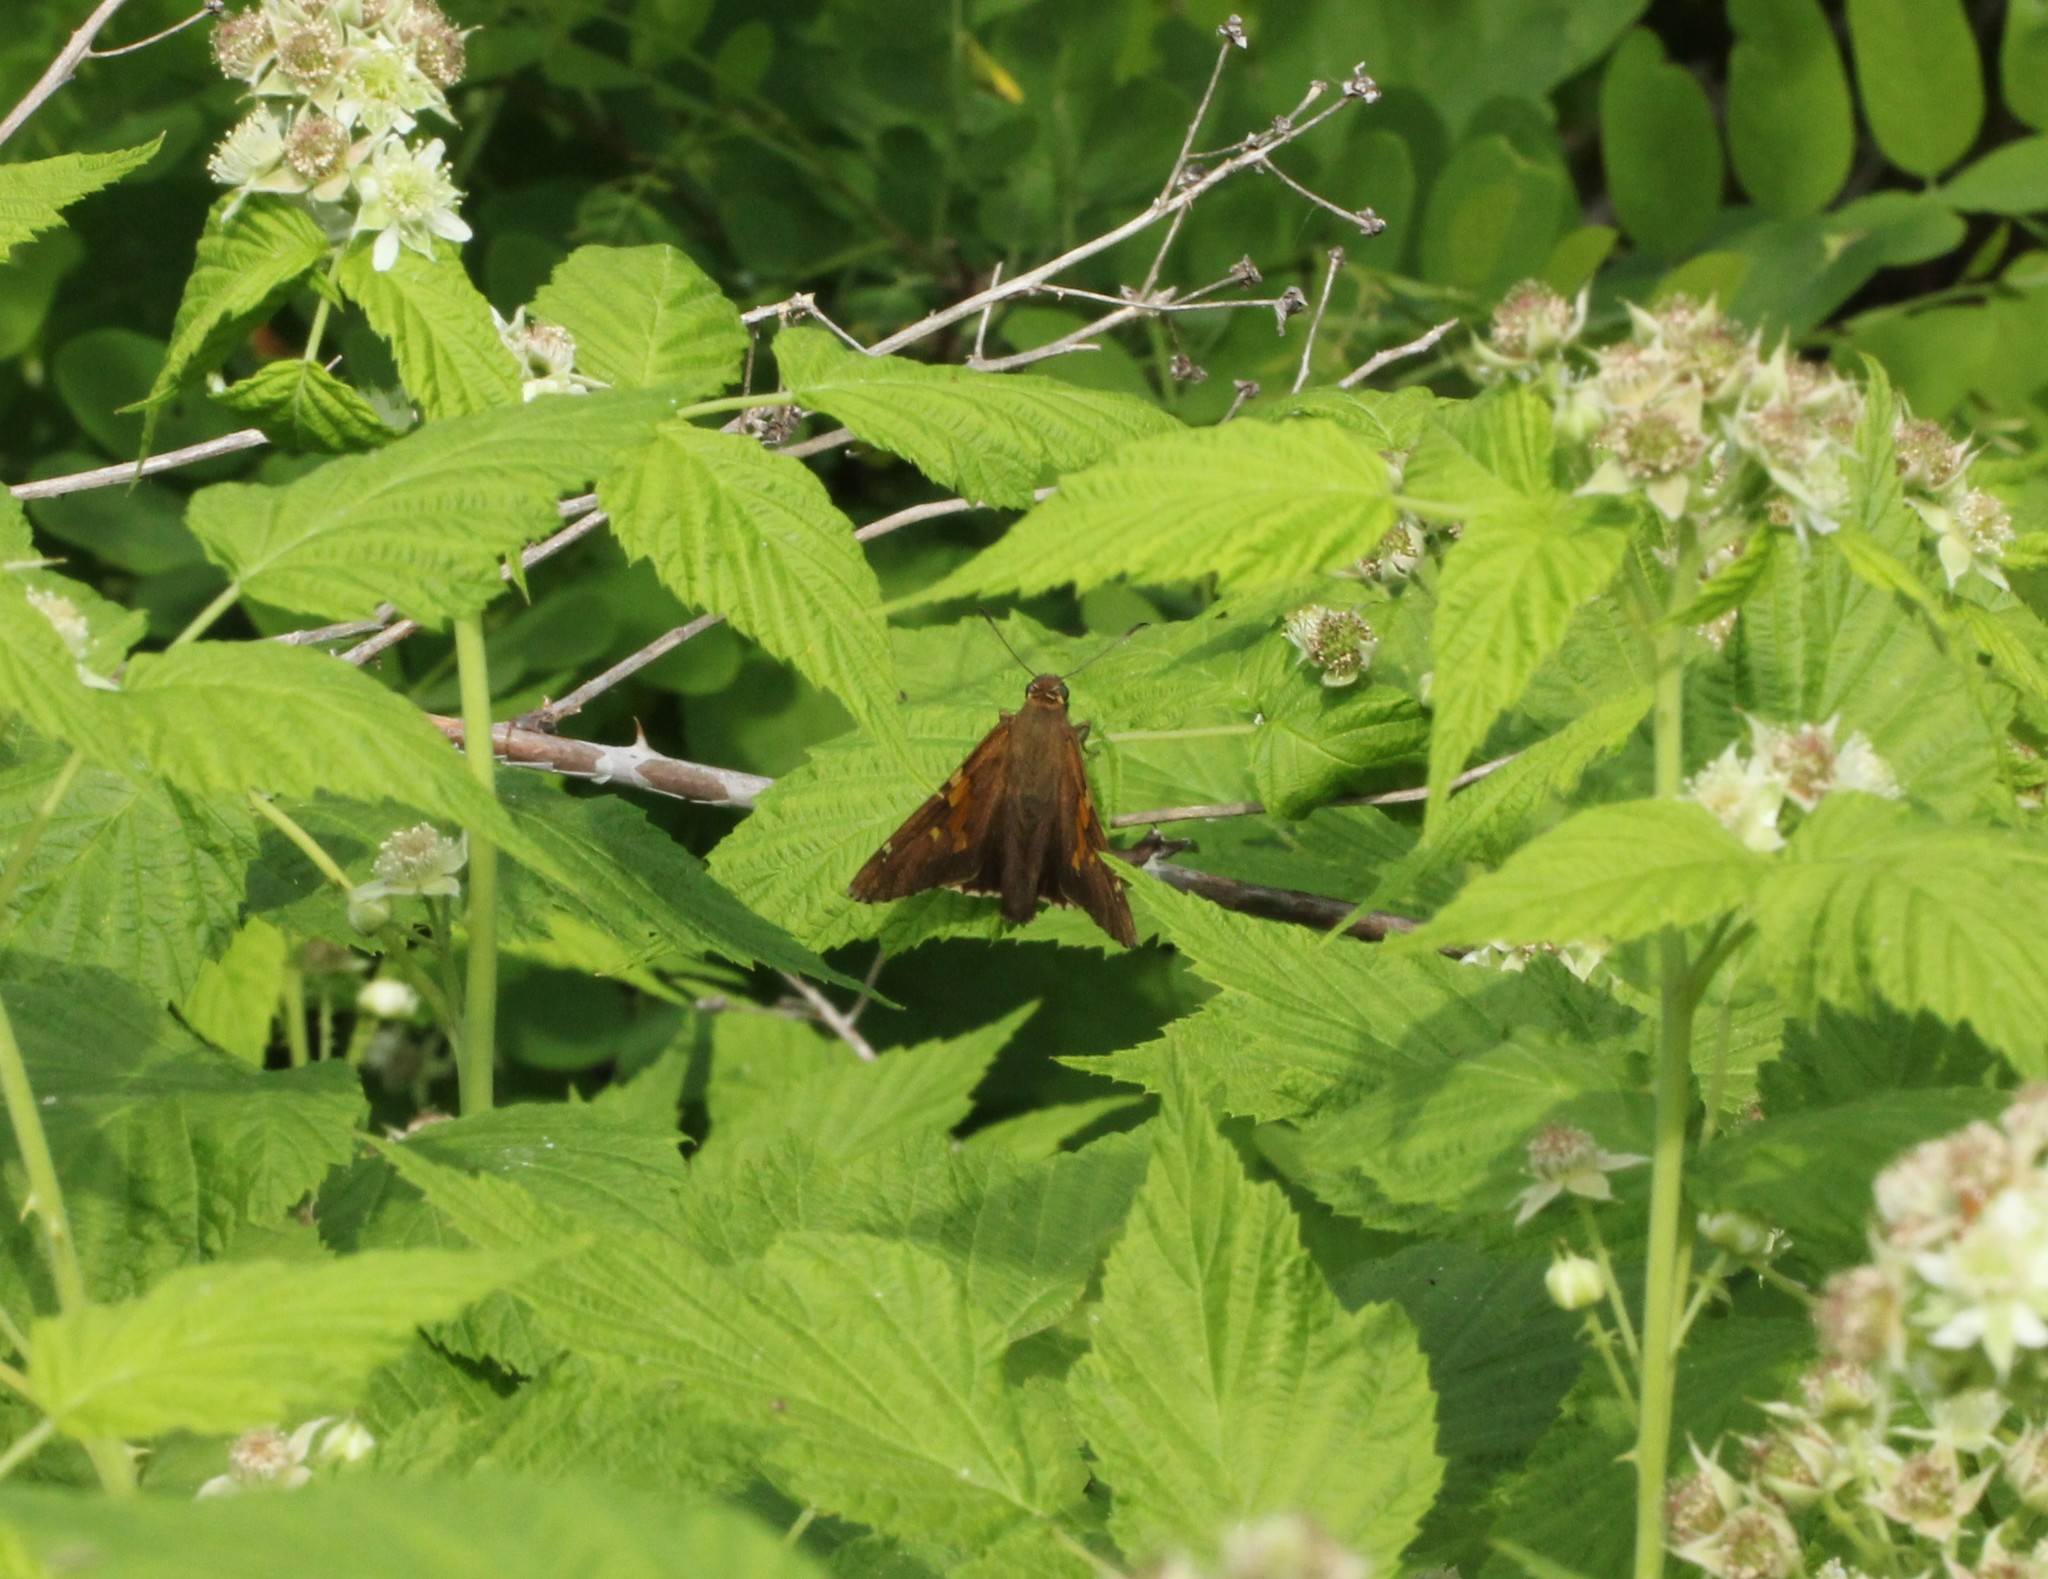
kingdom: Animalia
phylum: Arthropoda
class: Insecta
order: Lepidoptera
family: Hesperiidae
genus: Epargyreus
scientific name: Epargyreus clarus
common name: Silver-spotted skipper
